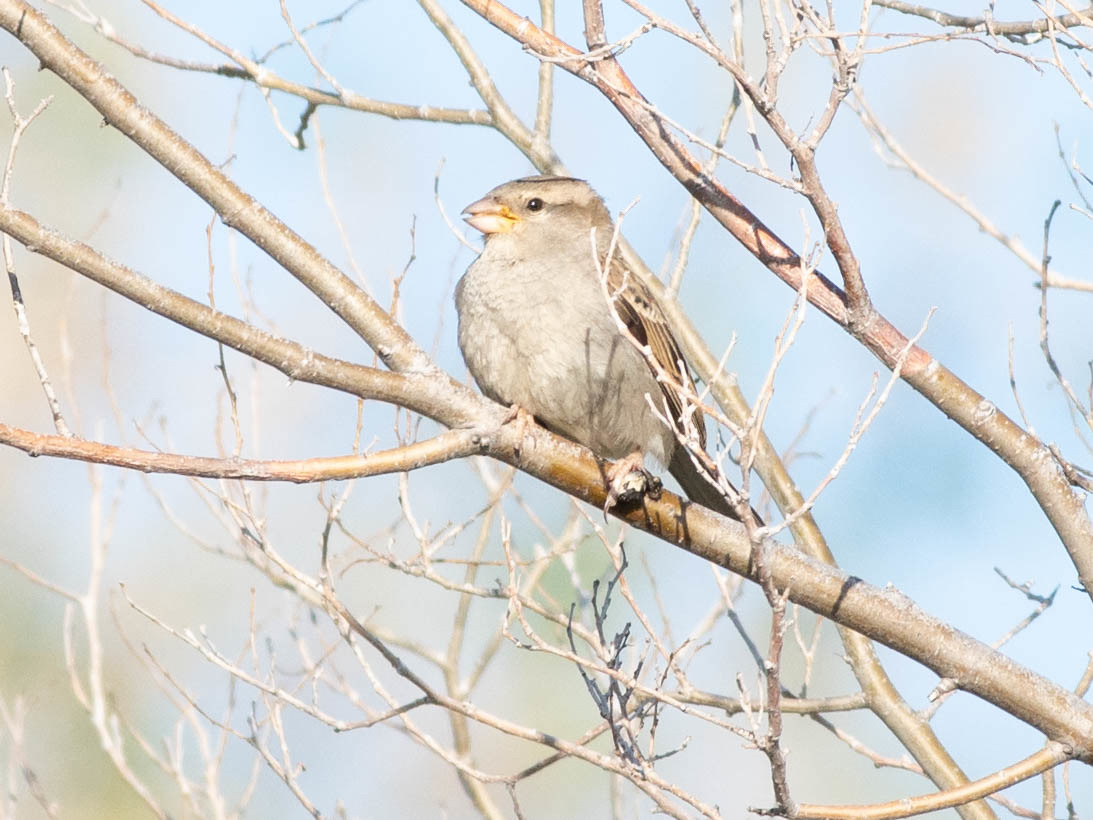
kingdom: Animalia
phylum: Chordata
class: Aves
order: Passeriformes
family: Passeridae
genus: Passer
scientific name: Passer domesticus
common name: House sparrow
